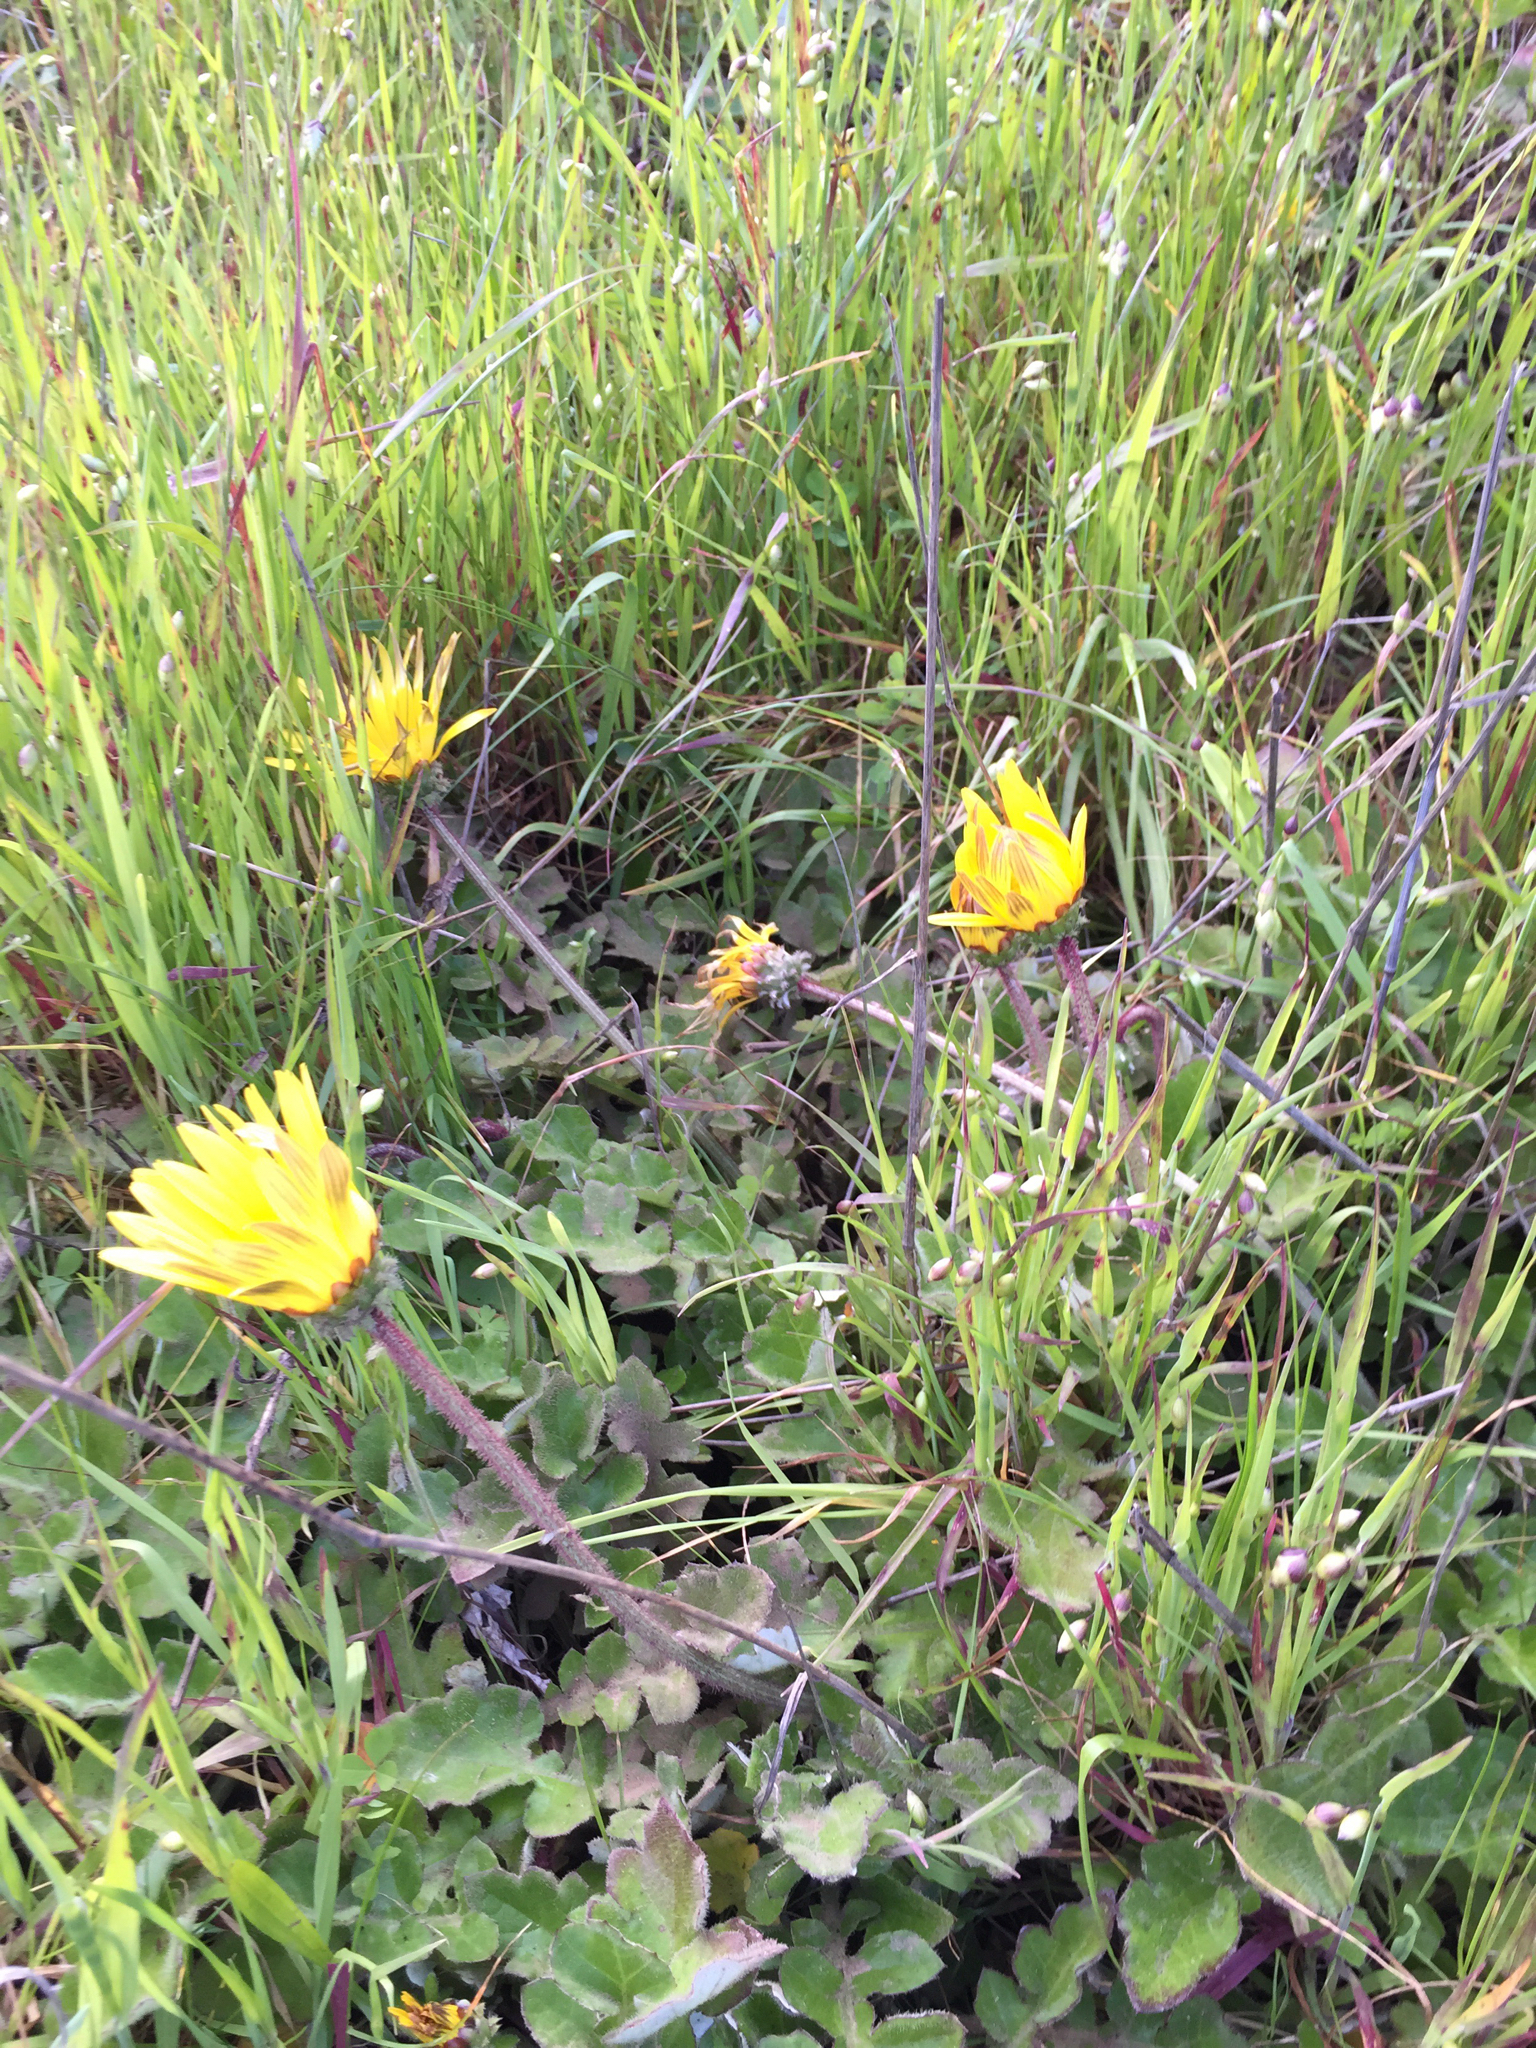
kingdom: Plantae
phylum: Tracheophyta
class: Magnoliopsida
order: Asterales
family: Asteraceae
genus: Arctotheca
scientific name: Arctotheca prostrata
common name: Capeweed
